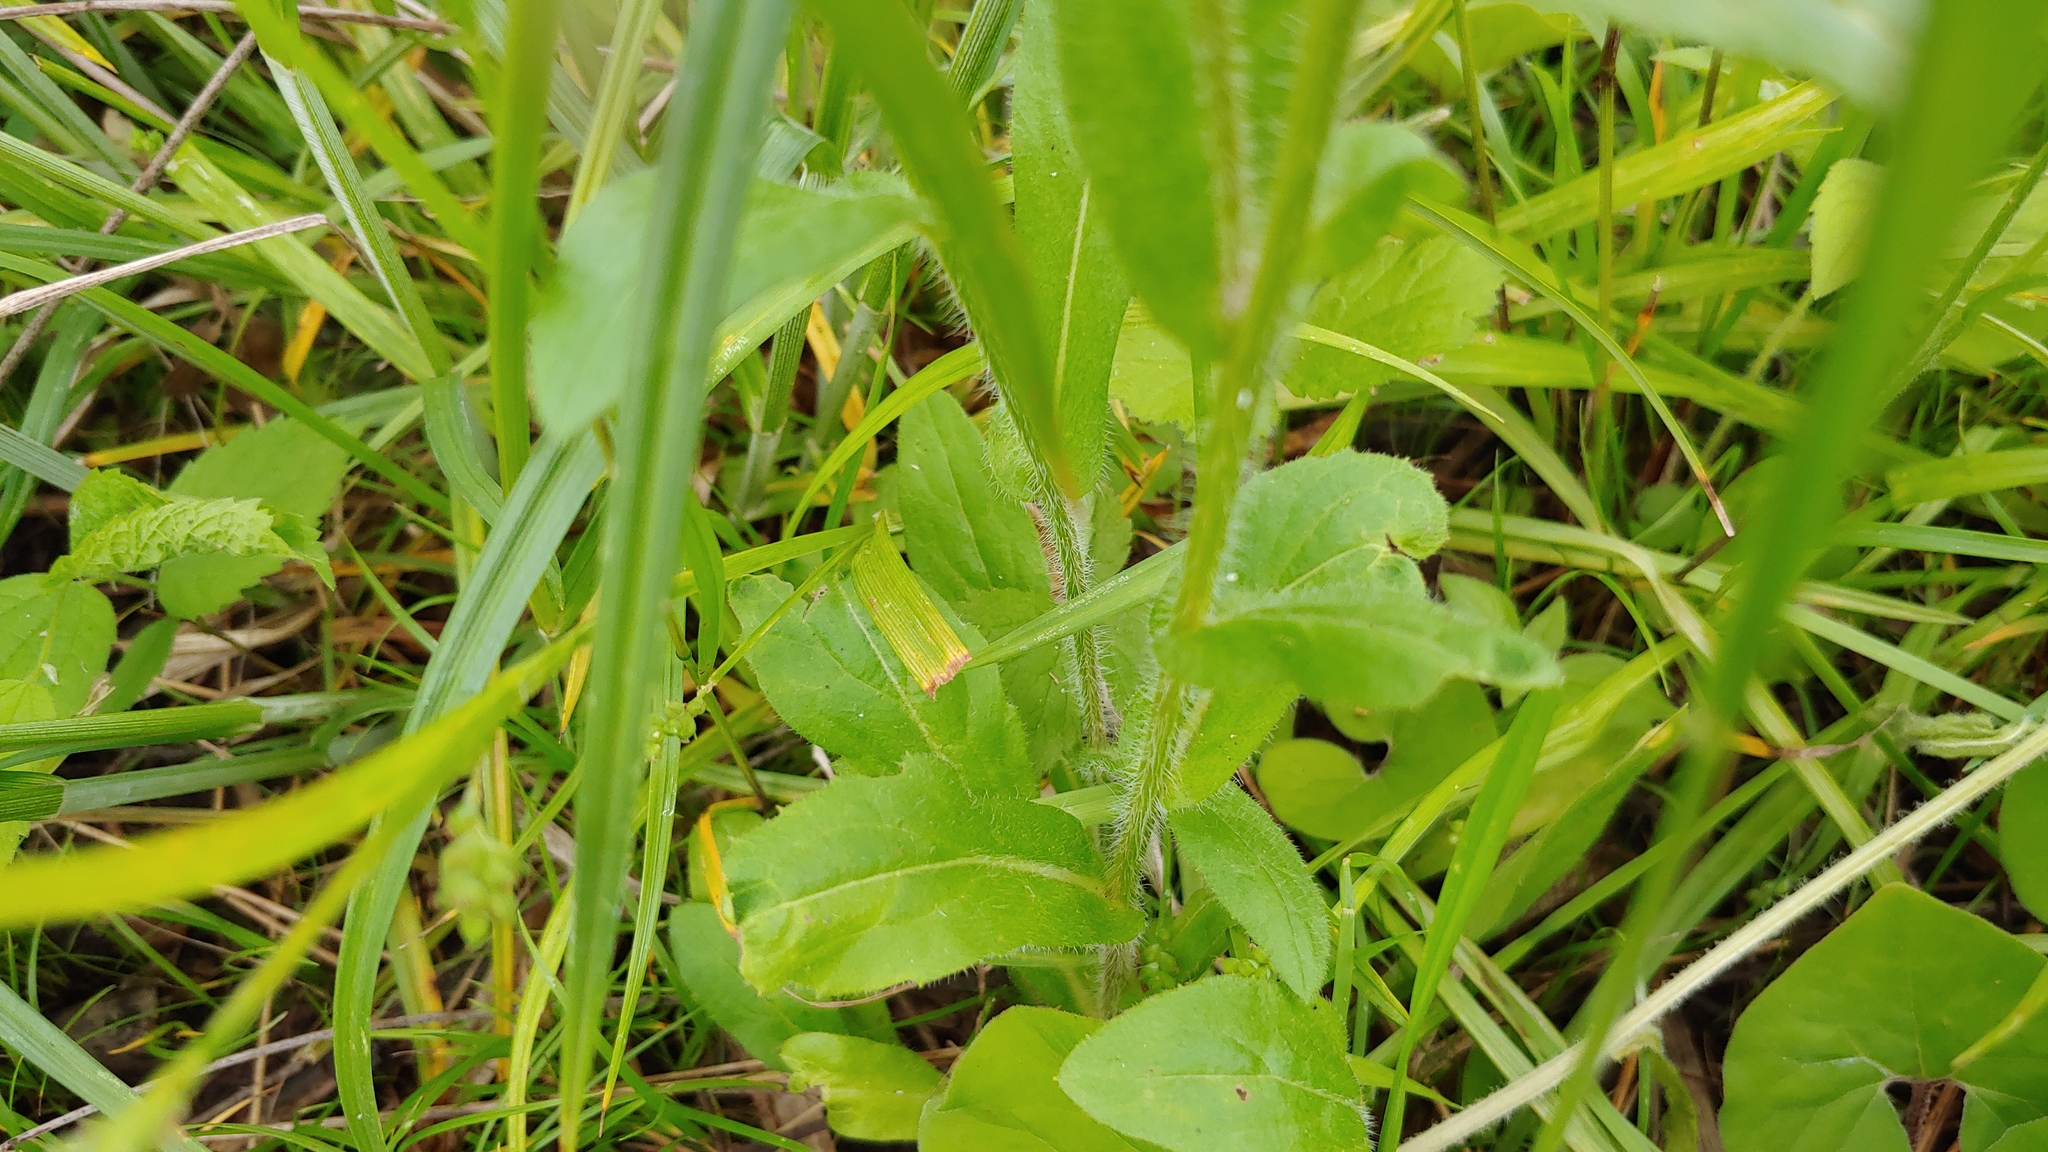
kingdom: Plantae
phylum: Tracheophyta
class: Magnoliopsida
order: Asterales
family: Asteraceae
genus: Erigeron
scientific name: Erigeron philadelphicus
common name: Robin's-plantain
